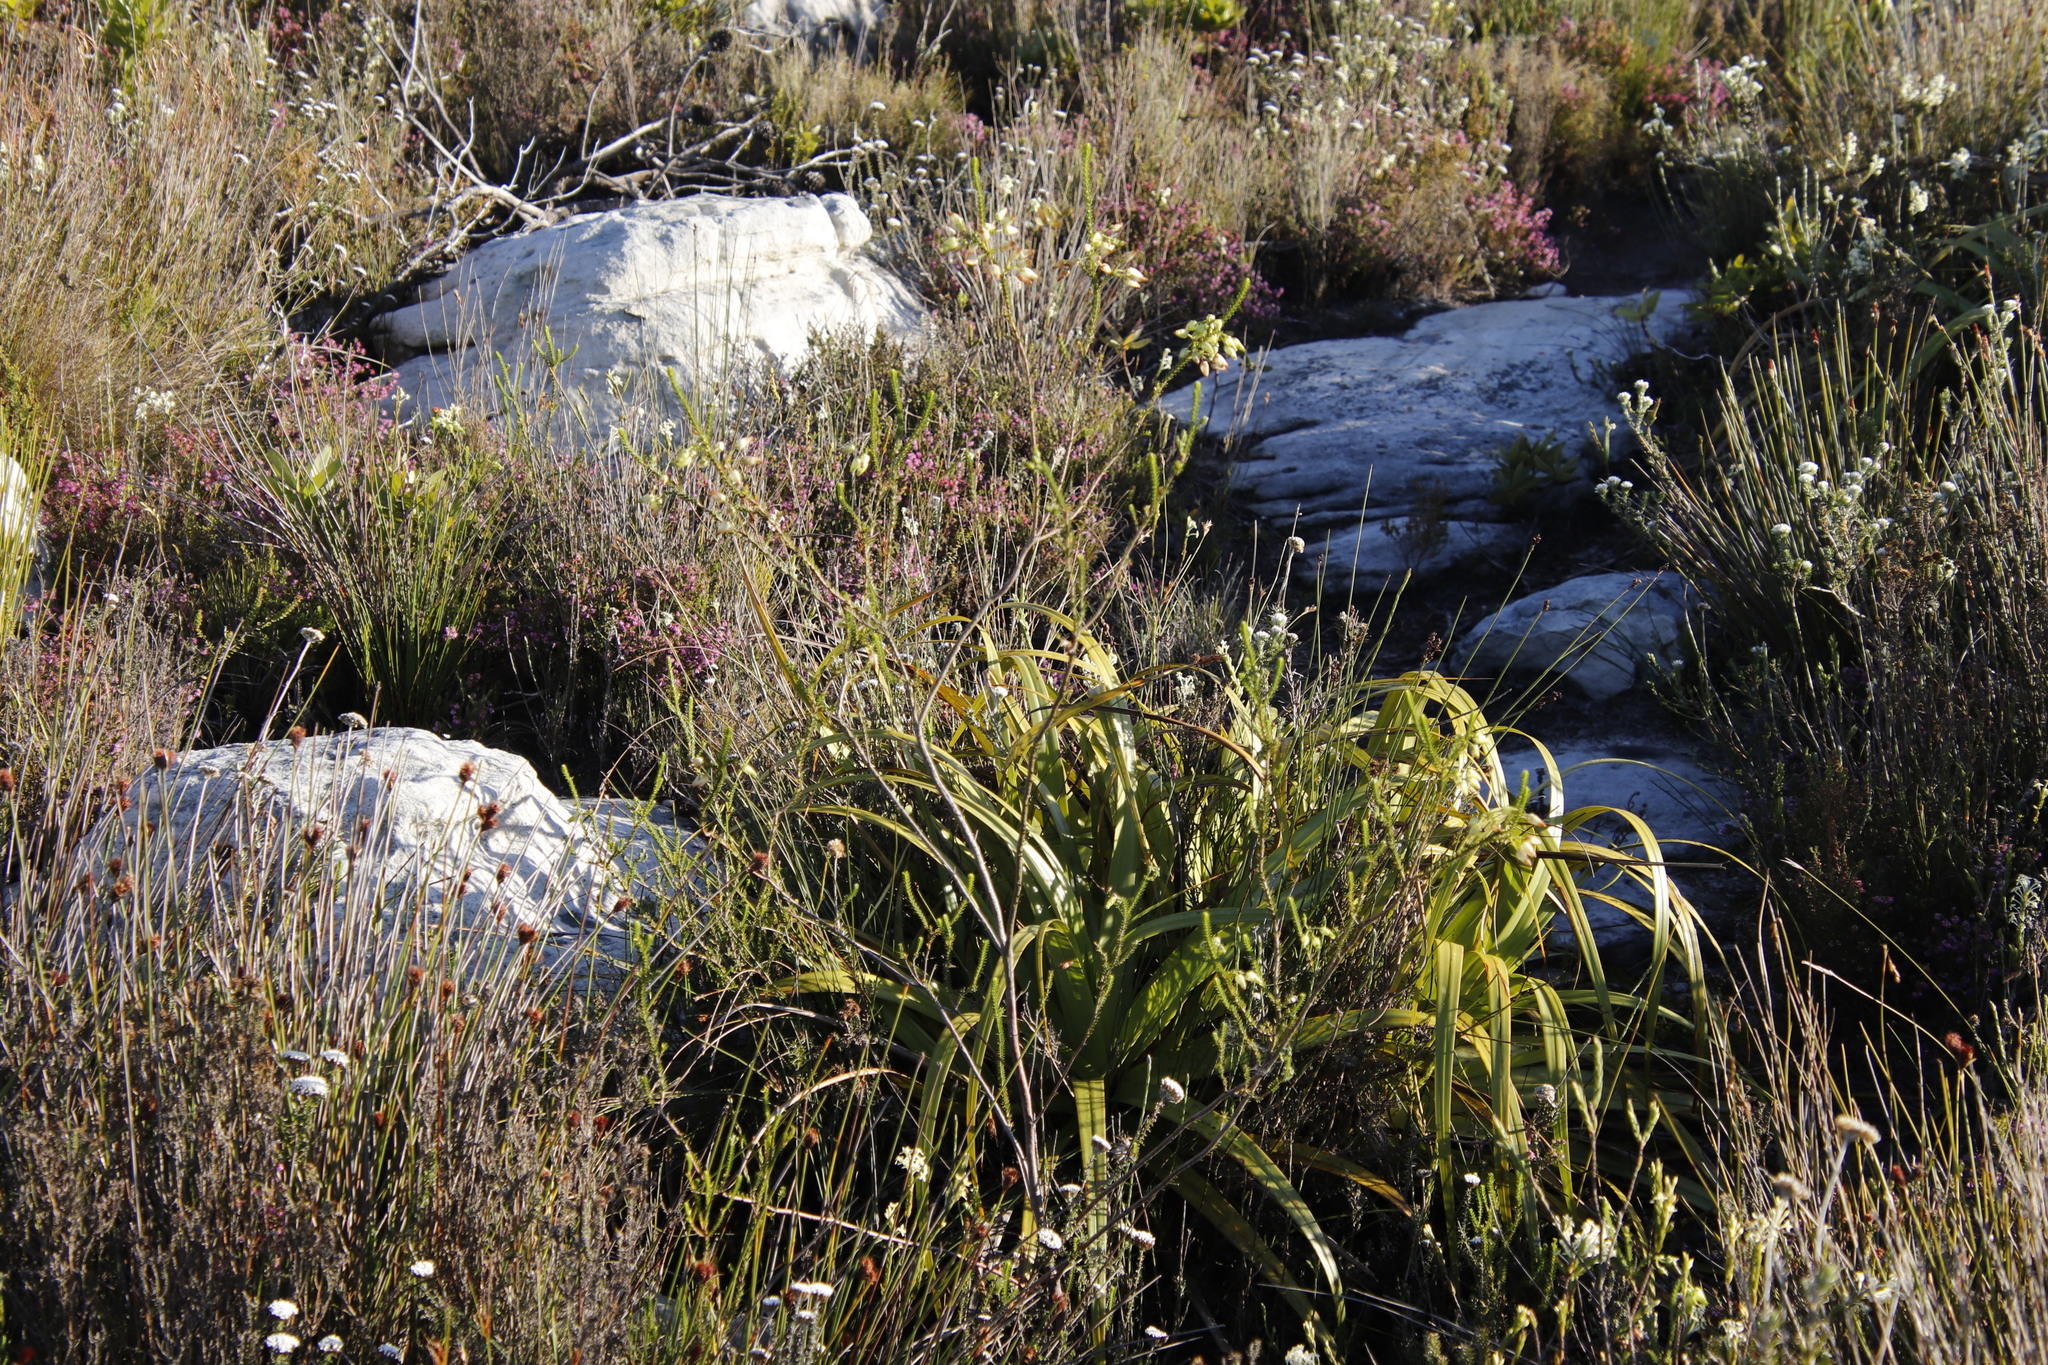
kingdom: Plantae
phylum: Tracheophyta
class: Magnoliopsida
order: Ericales
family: Ericaceae
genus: Erica
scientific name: Erica urna-viridis
